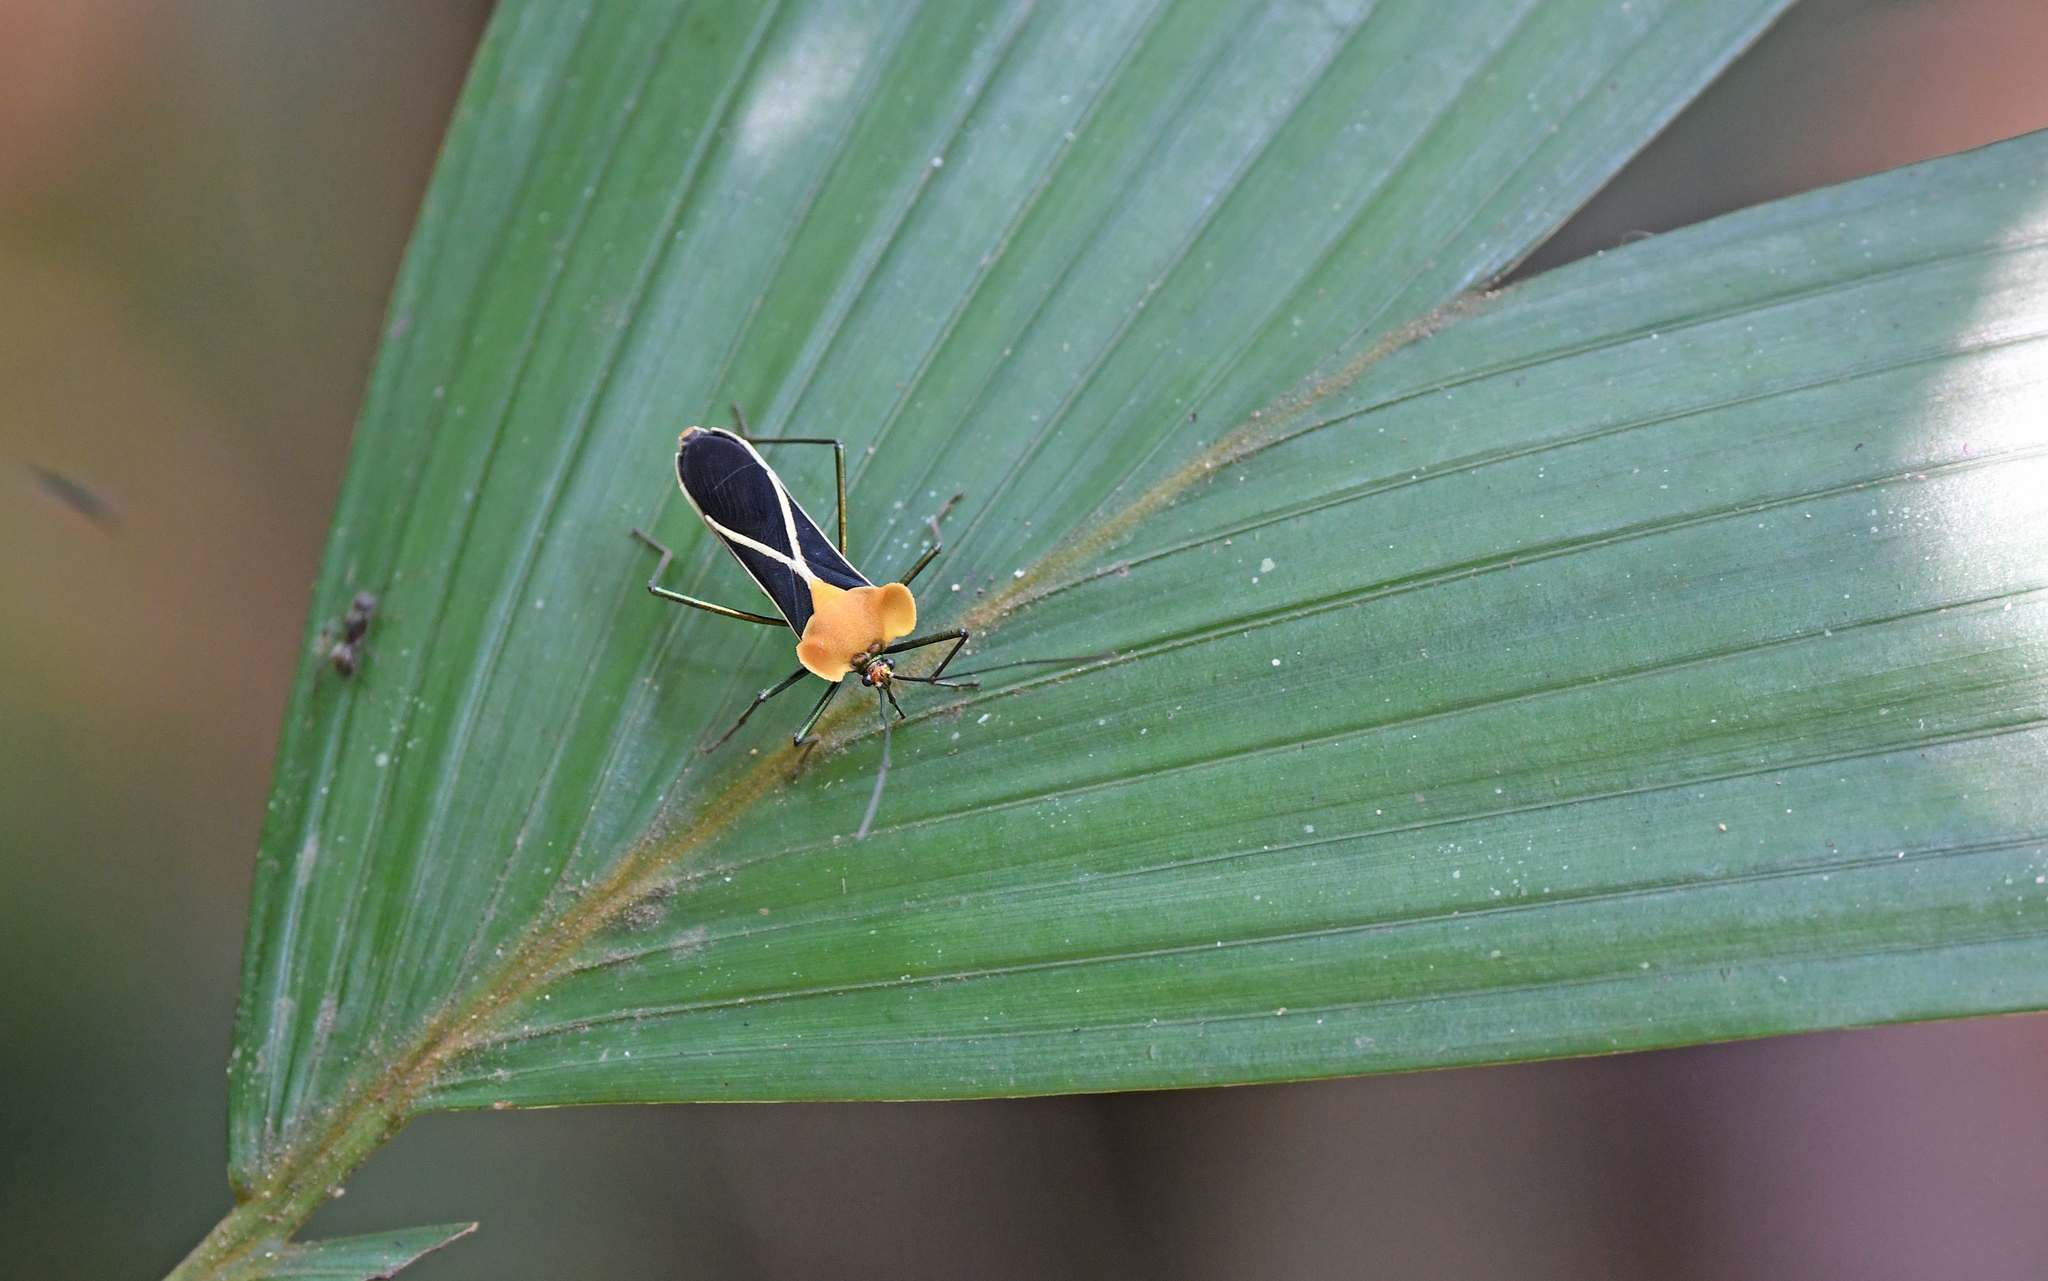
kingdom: Animalia
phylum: Arthropoda
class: Insecta
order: Hemiptera
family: Coreidae
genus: Sundarus
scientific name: Sundarus macrotus
